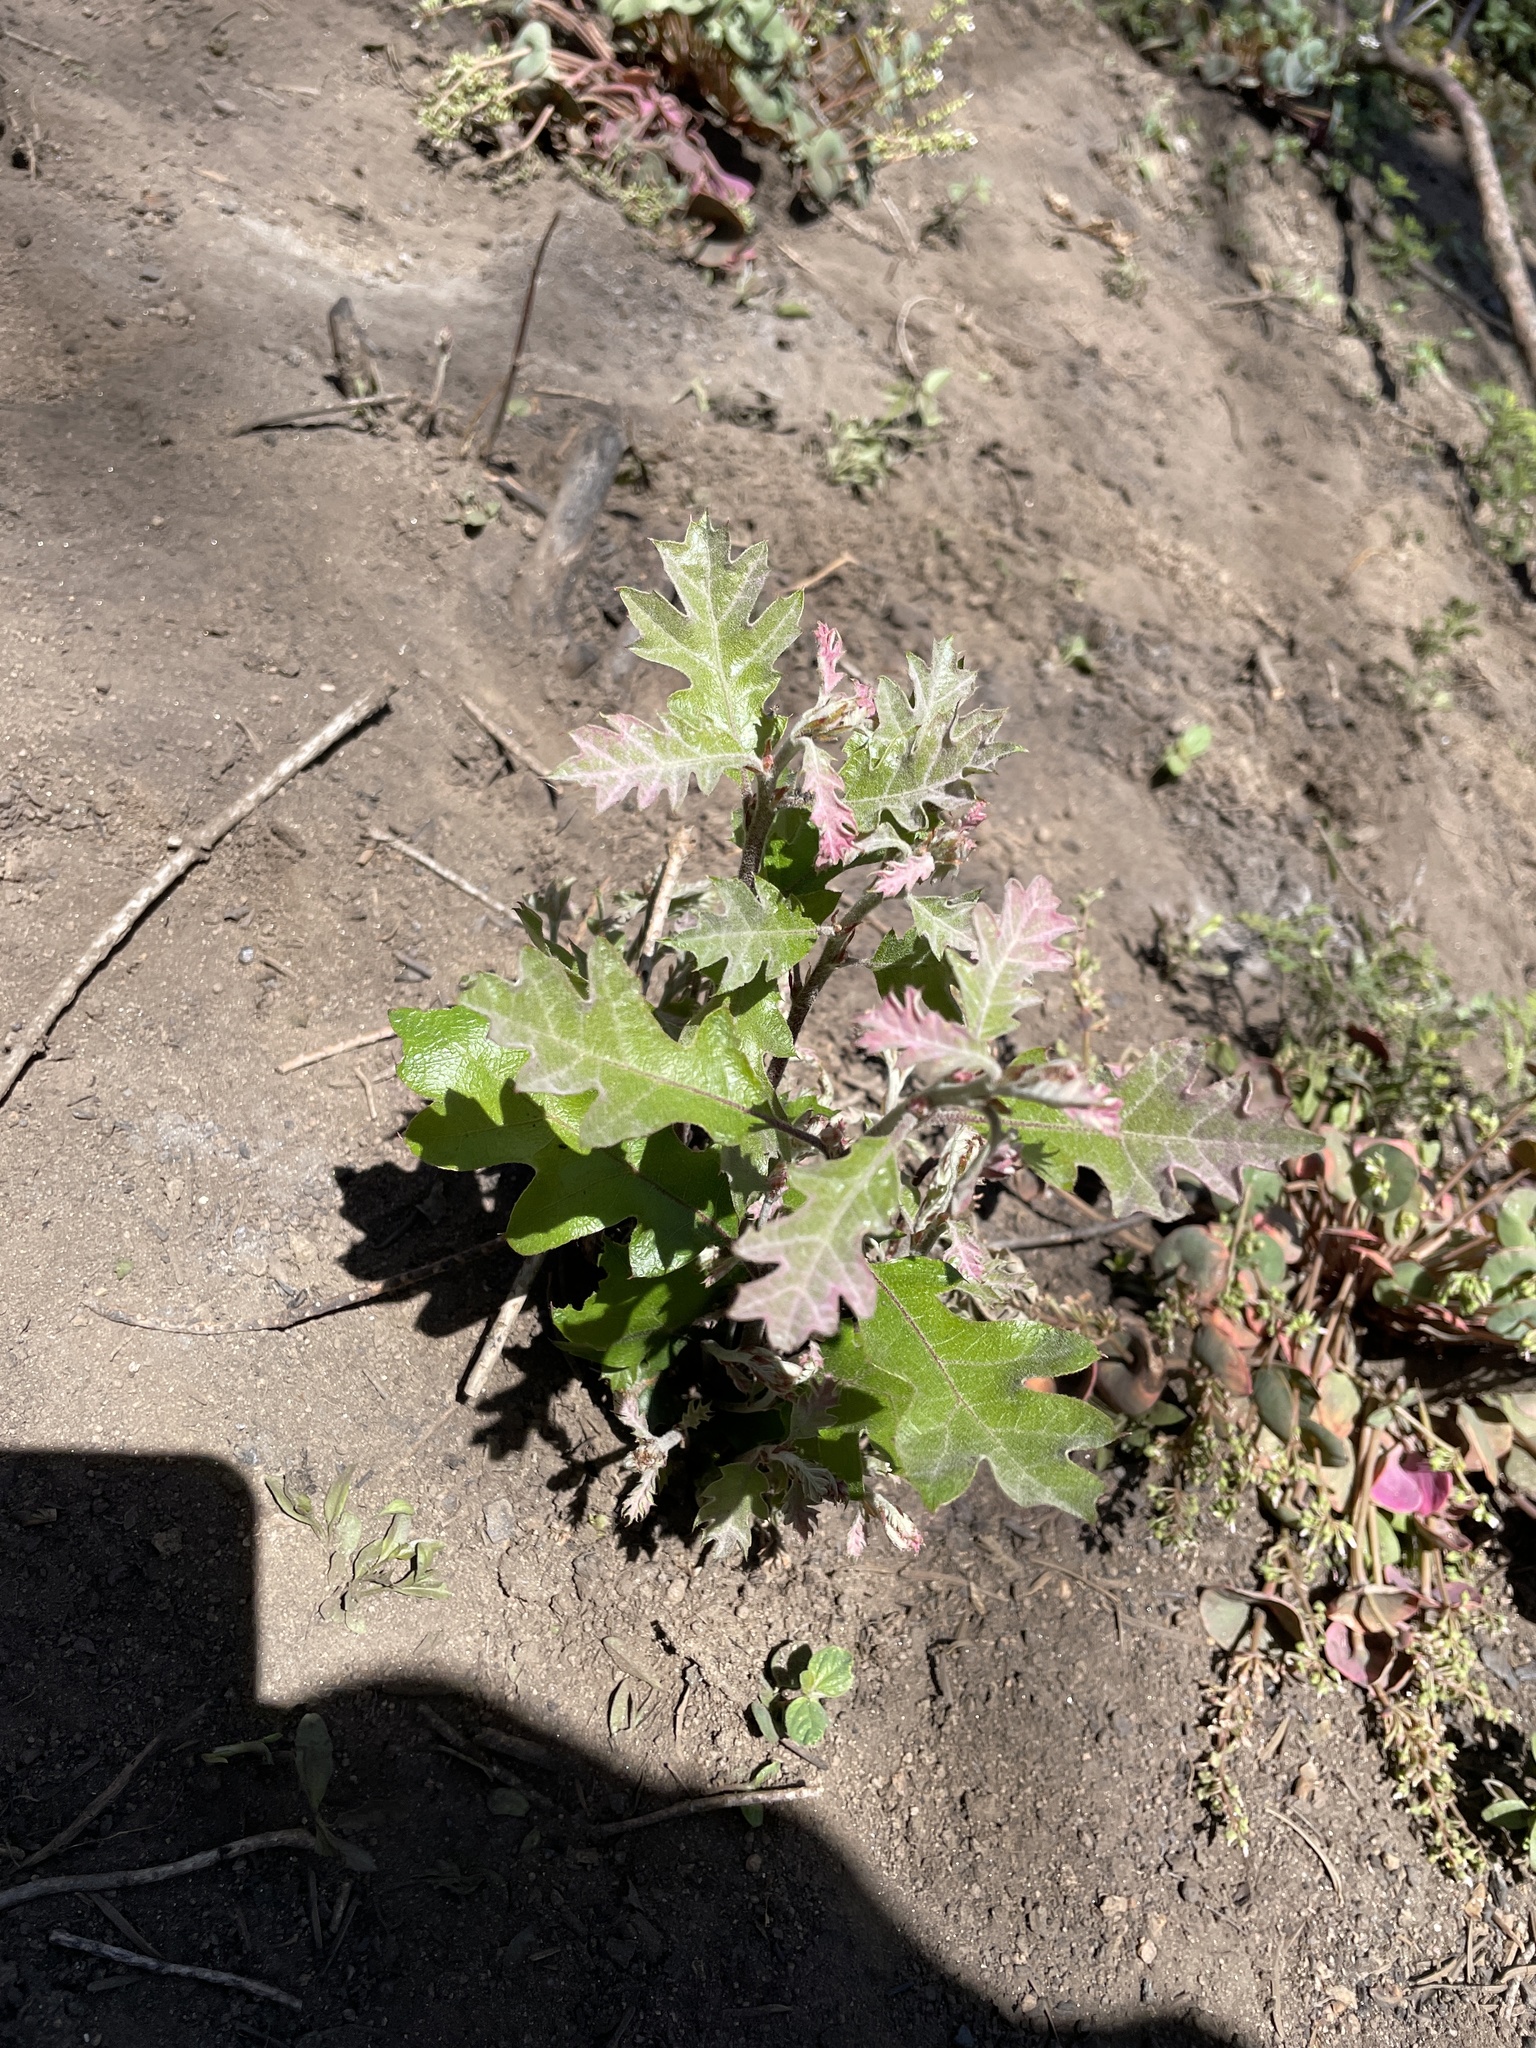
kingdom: Plantae
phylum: Tracheophyta
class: Magnoliopsida
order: Fagales
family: Fagaceae
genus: Quercus
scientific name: Quercus kelloggii
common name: California black oak
